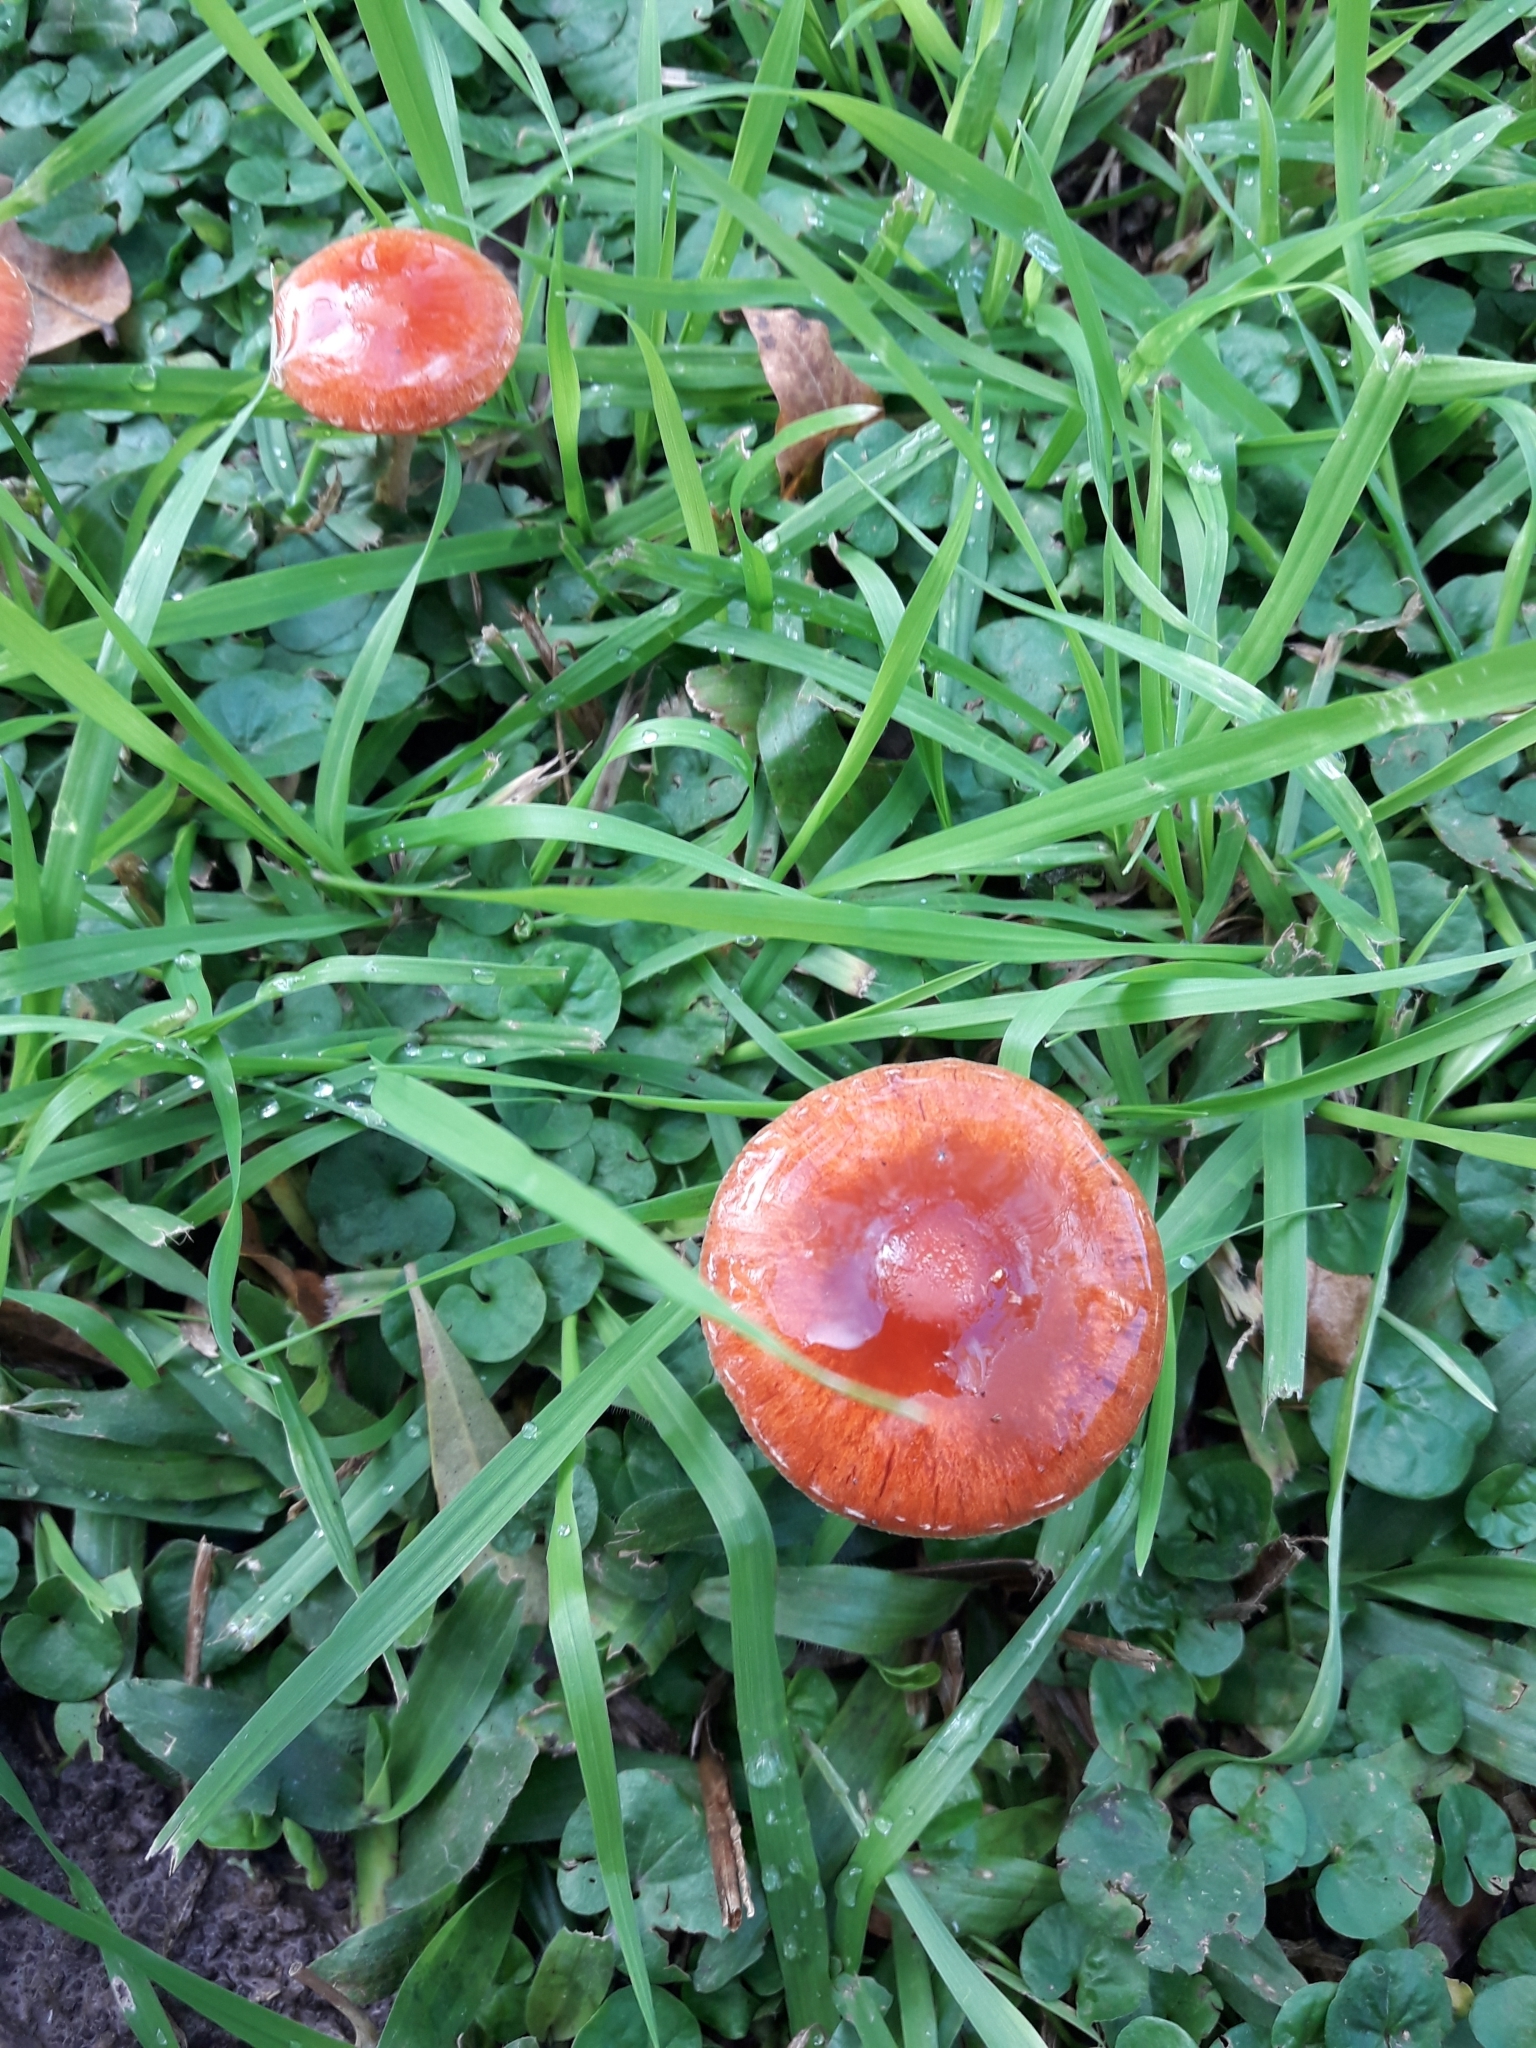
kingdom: Fungi
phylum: Basidiomycota
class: Agaricomycetes
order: Agaricales
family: Strophariaceae
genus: Leratiomyces
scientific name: Leratiomyces ceres
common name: Redlead roundhead
